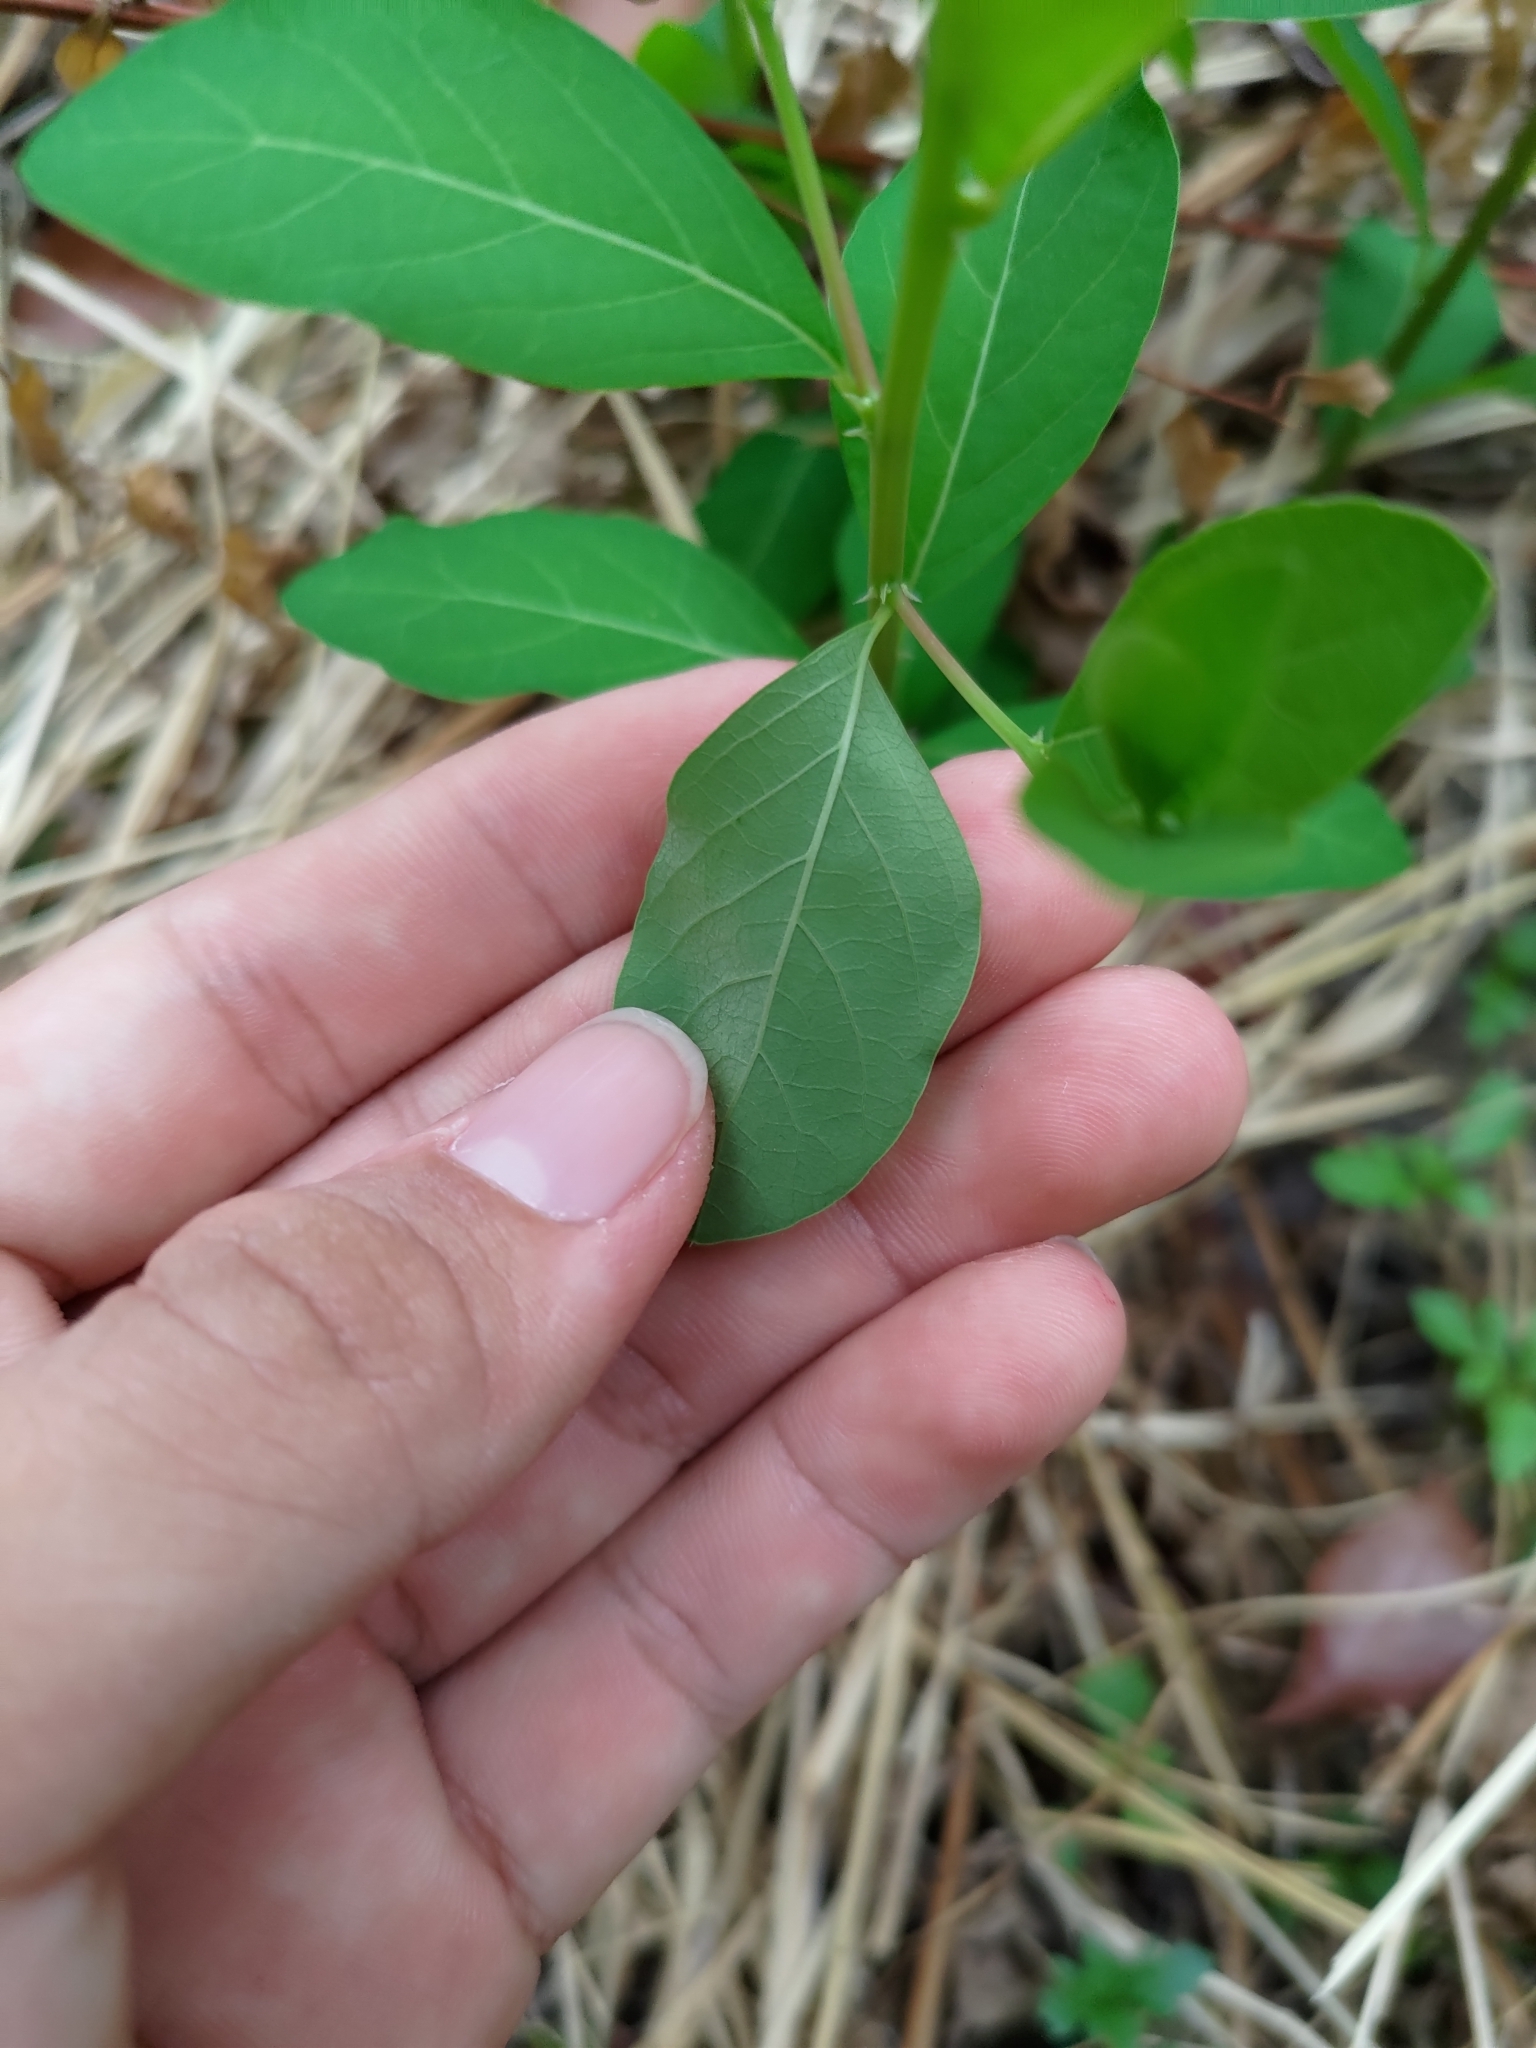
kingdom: Plantae
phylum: Tracheophyta
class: Magnoliopsida
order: Malpighiales
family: Phyllanthaceae
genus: Flueggea
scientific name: Flueggea virosa
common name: Common bushweed
